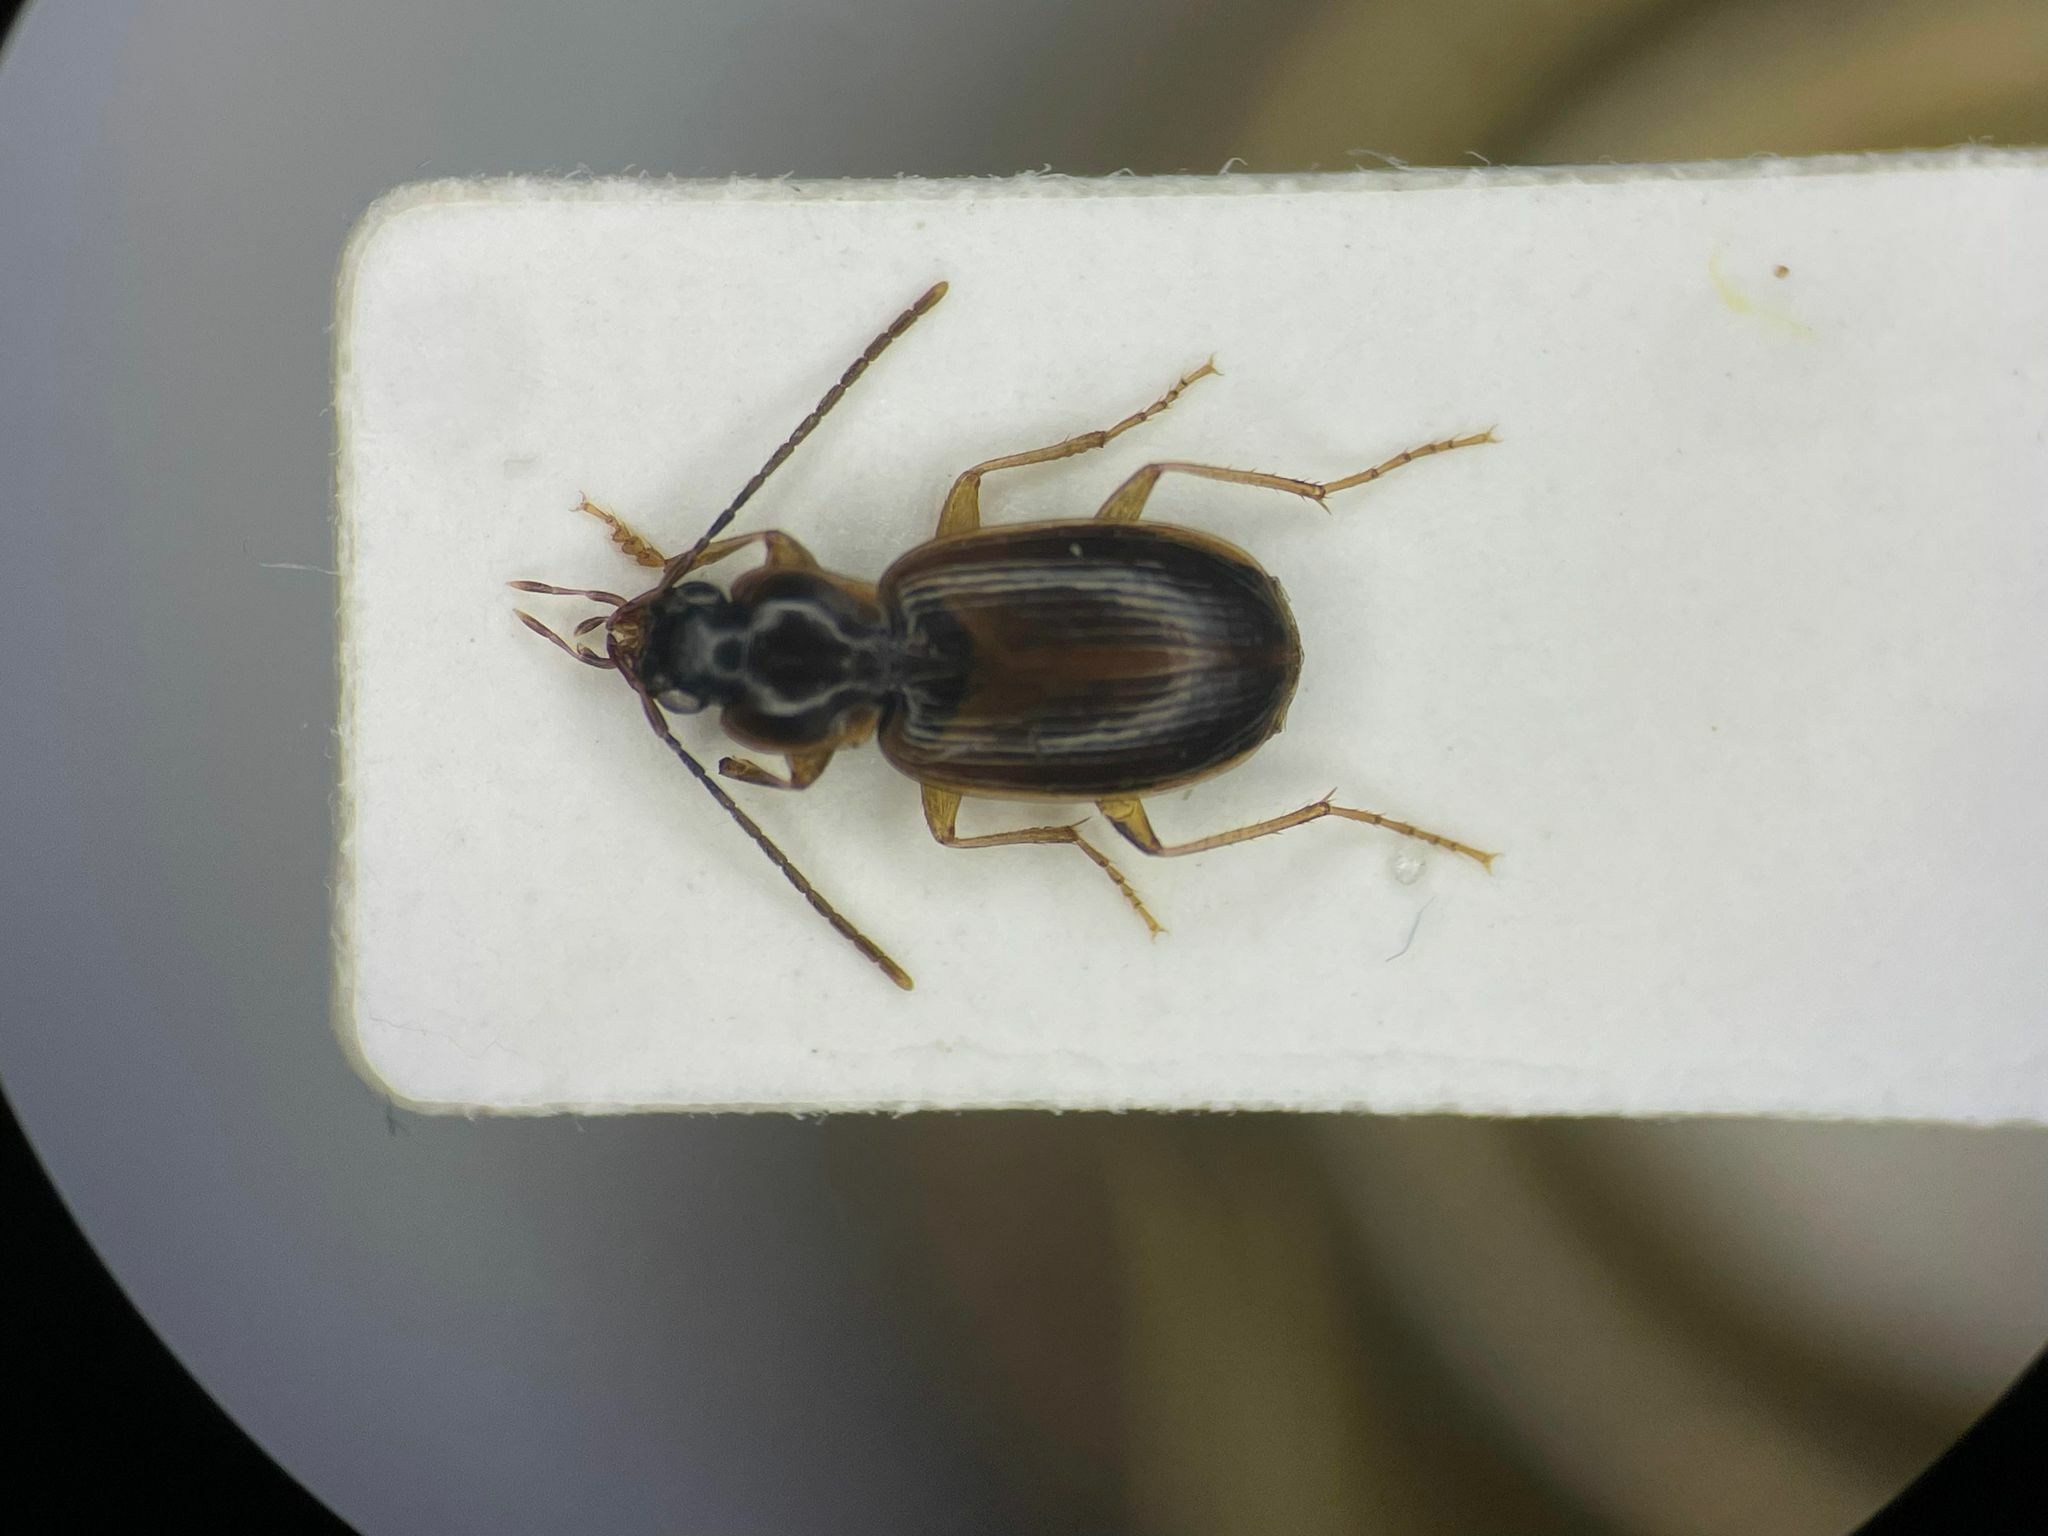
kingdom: Animalia
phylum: Arthropoda
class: Insecta
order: Coleoptera
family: Carabidae
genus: Badister
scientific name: Badister parviceps
